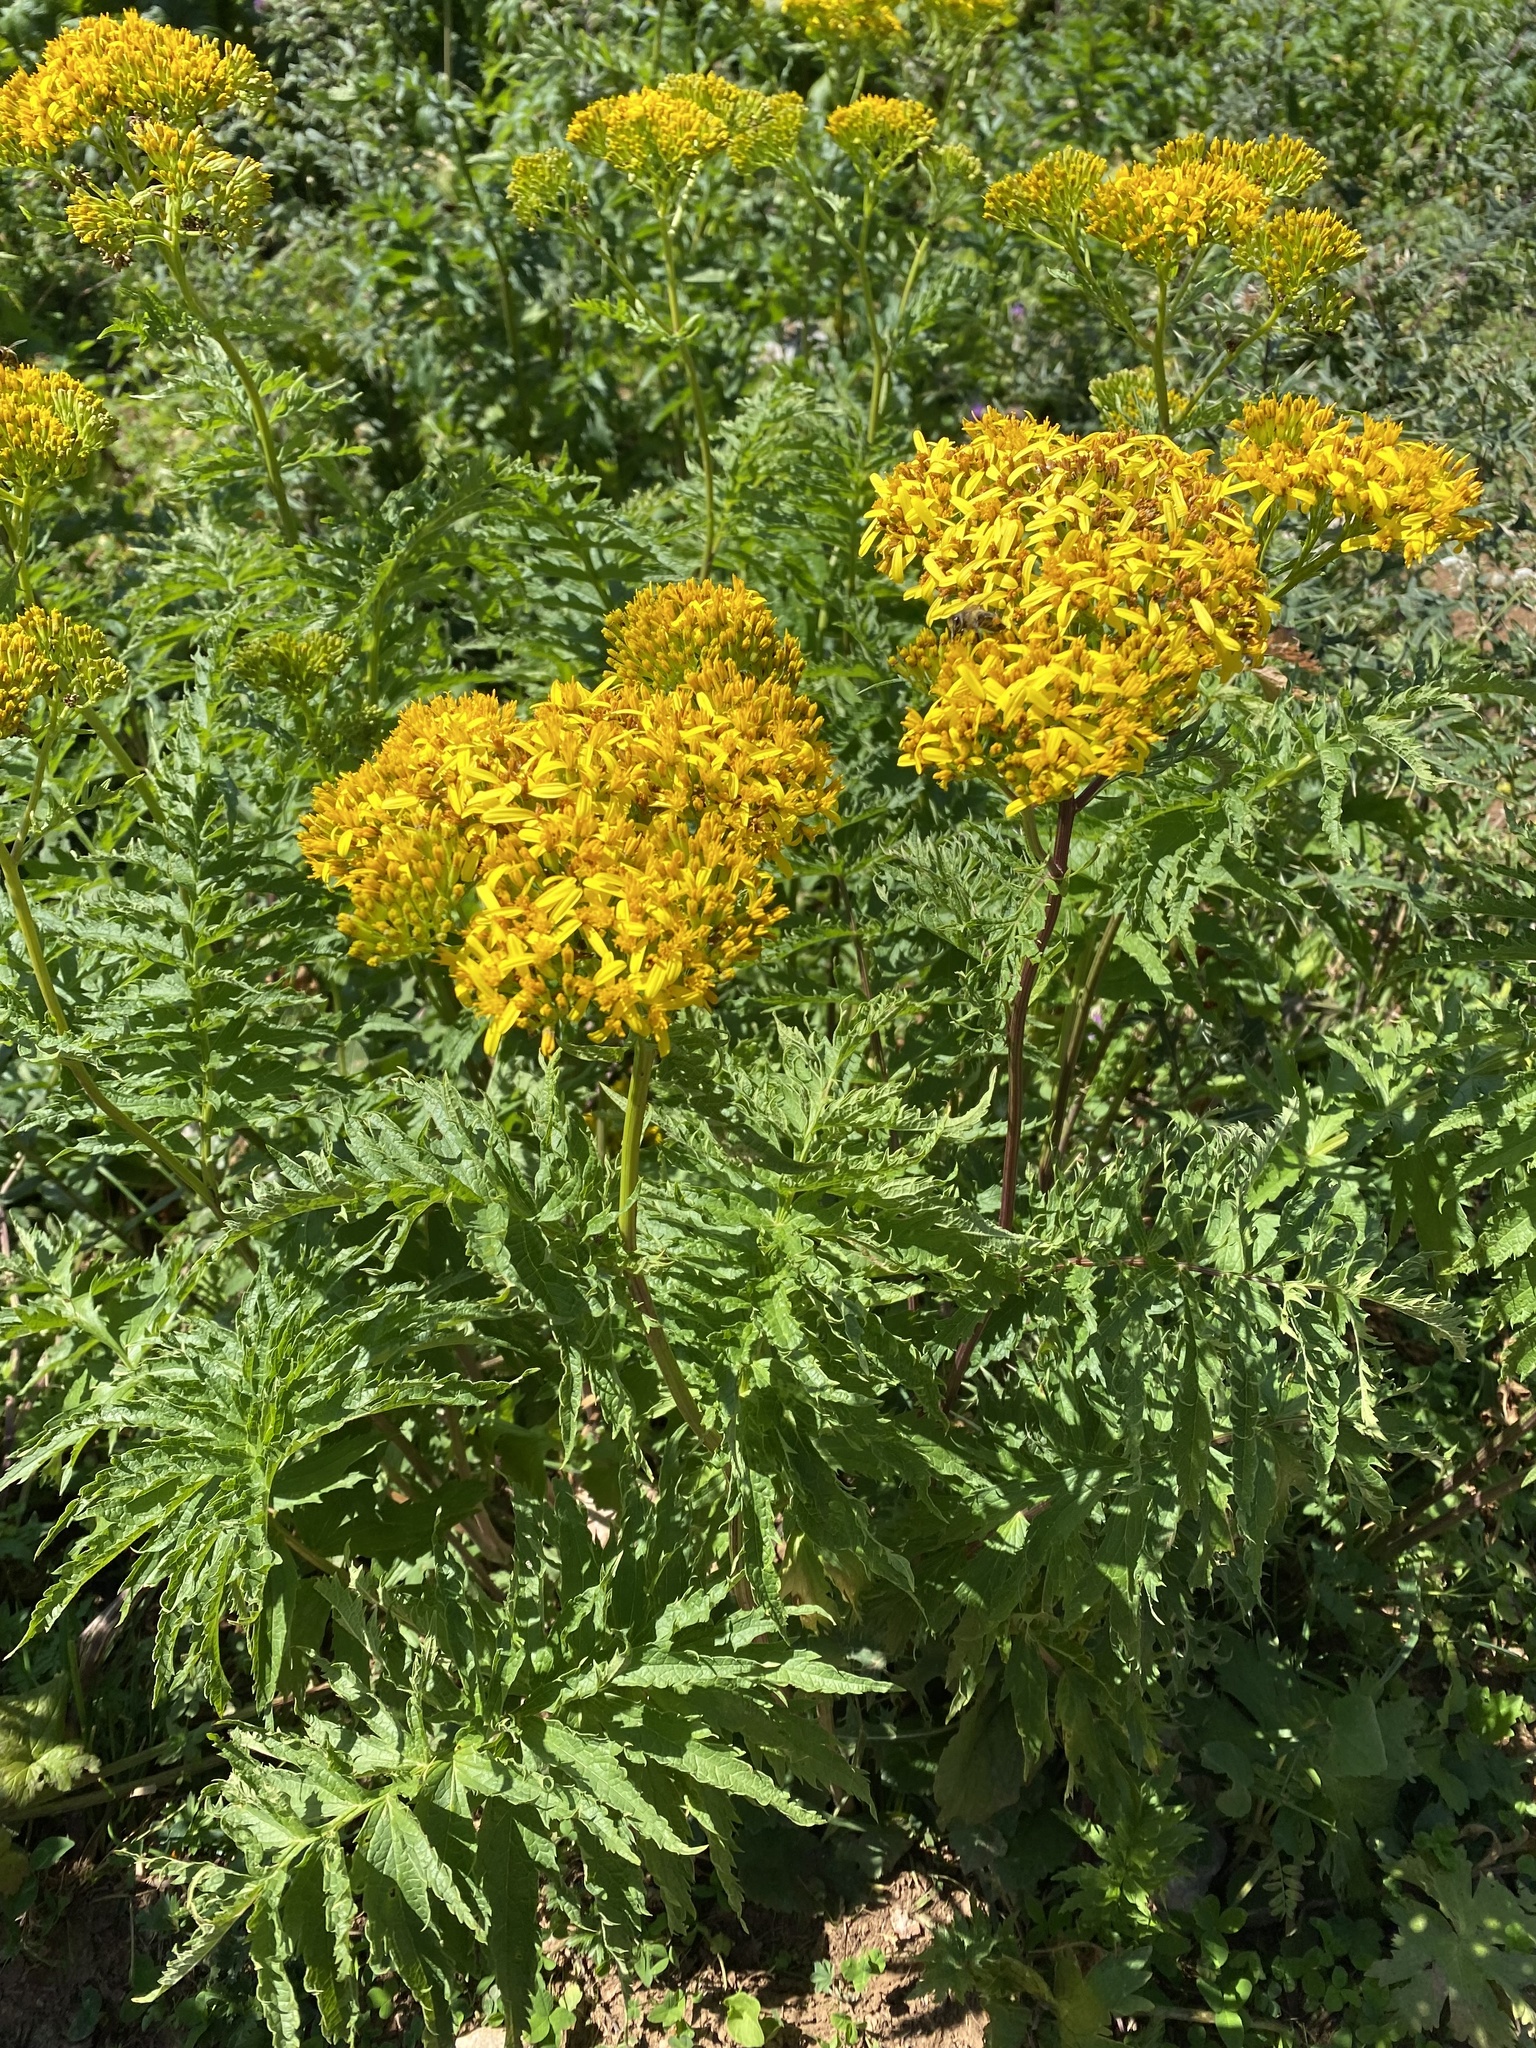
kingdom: Plantae
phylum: Tracheophyta
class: Magnoliopsida
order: Asterales
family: Asteraceae
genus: Jacobaea
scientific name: Jacobaea othonnae
